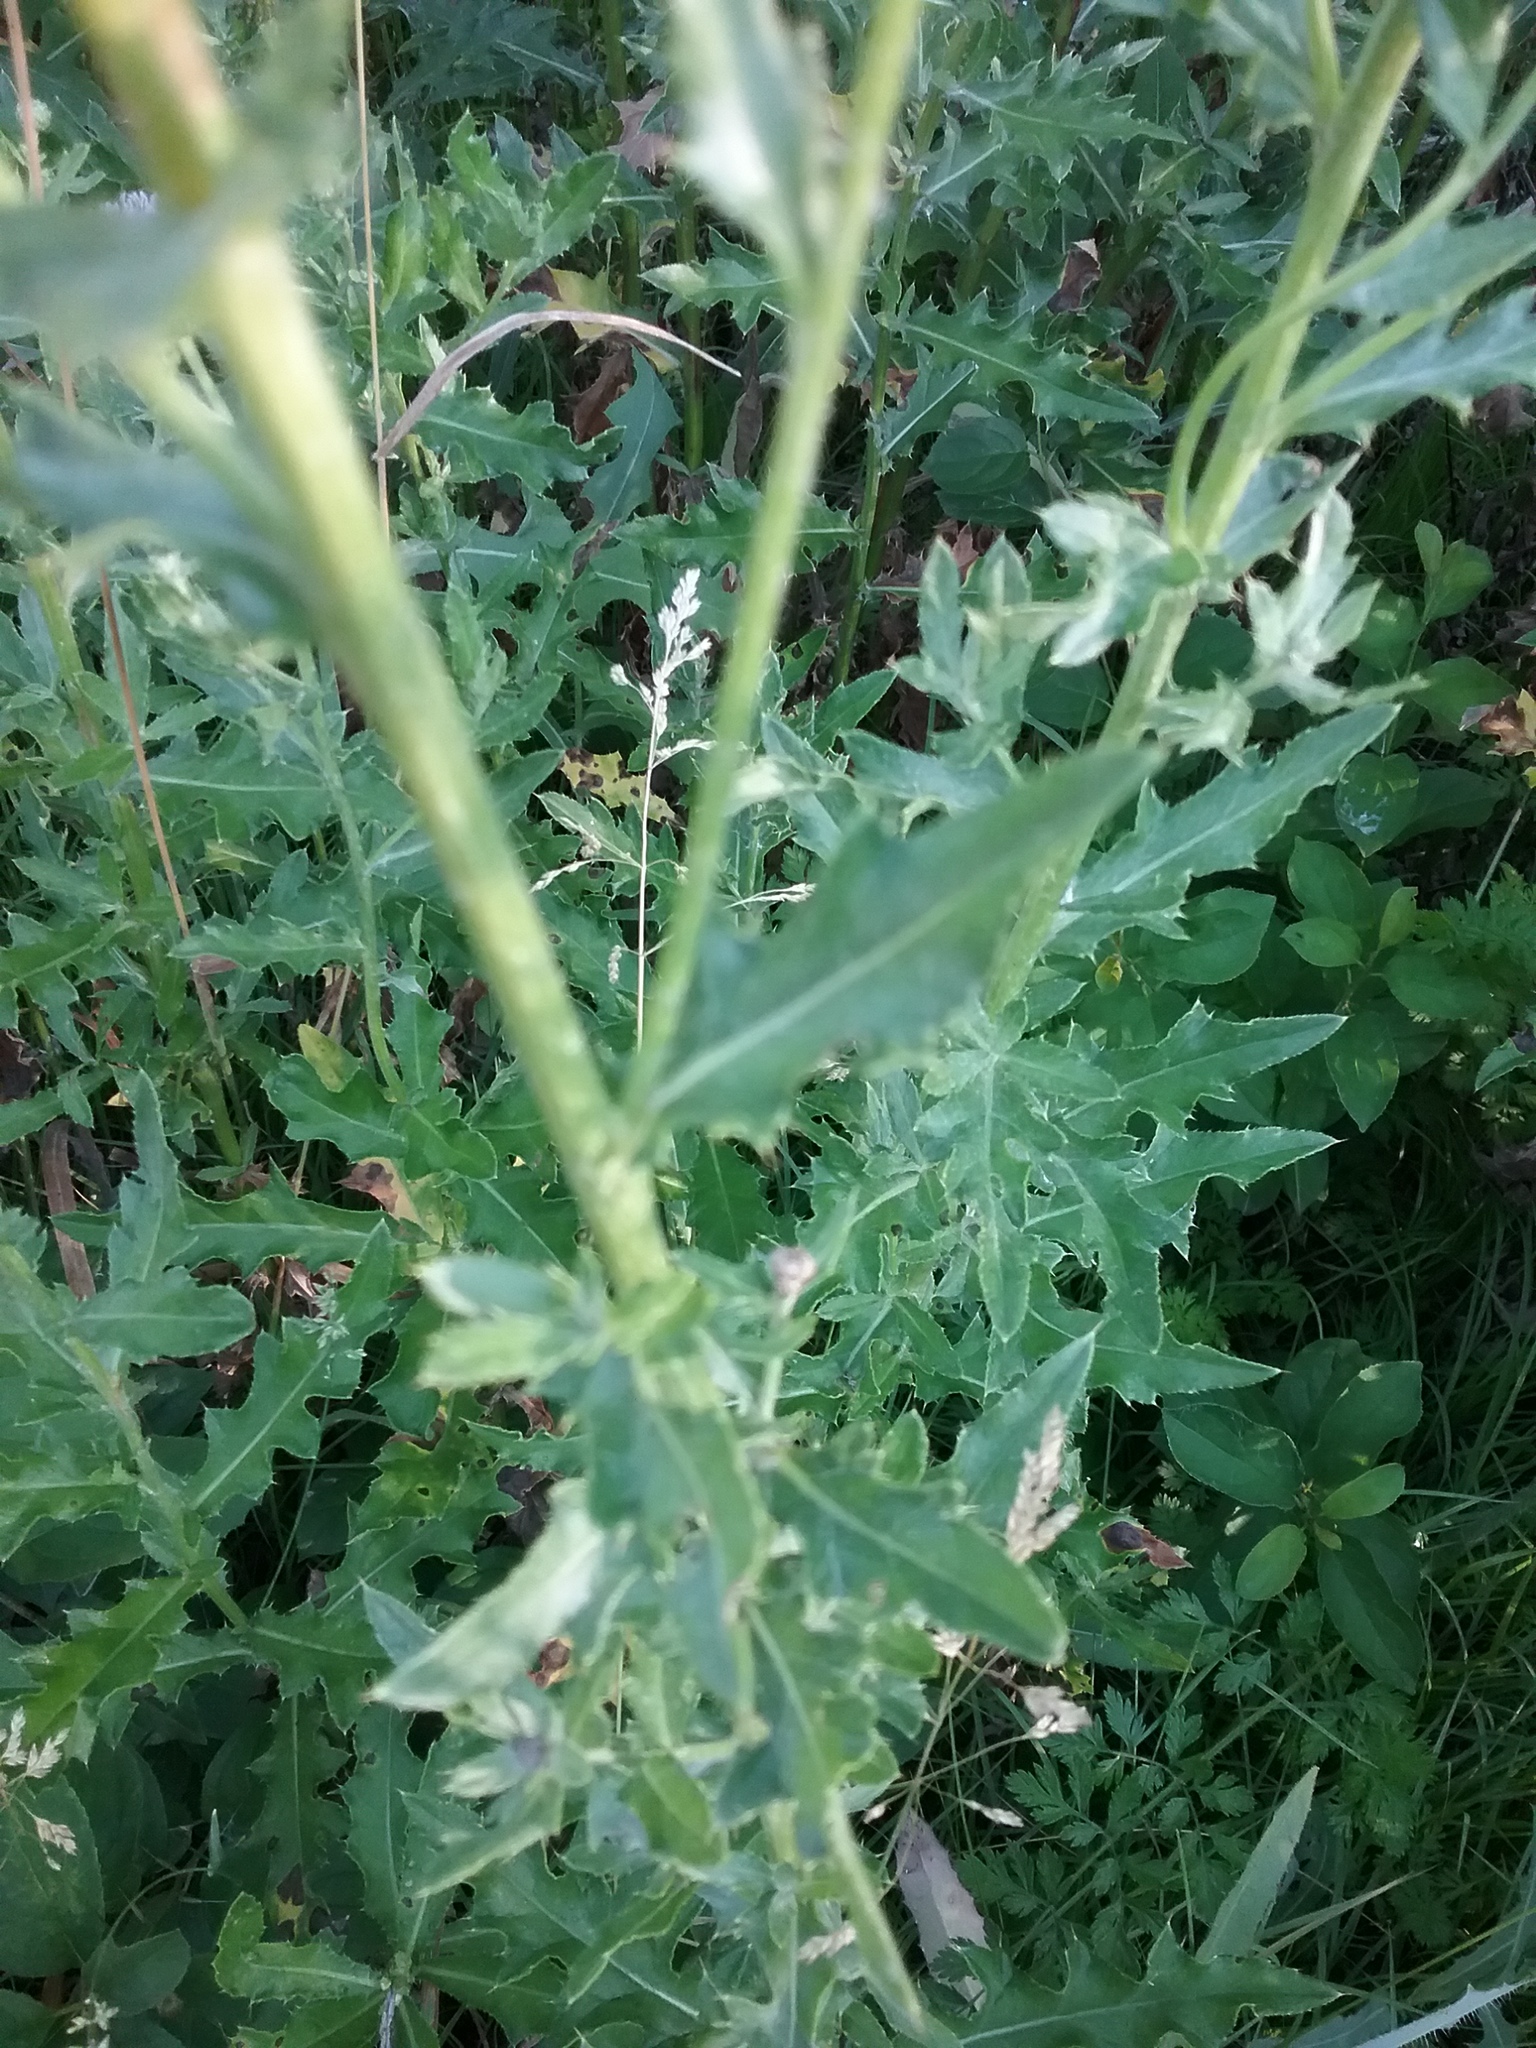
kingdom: Plantae
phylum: Tracheophyta
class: Magnoliopsida
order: Asterales
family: Asteraceae
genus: Cirsium
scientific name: Cirsium arvense
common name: Creeping thistle
